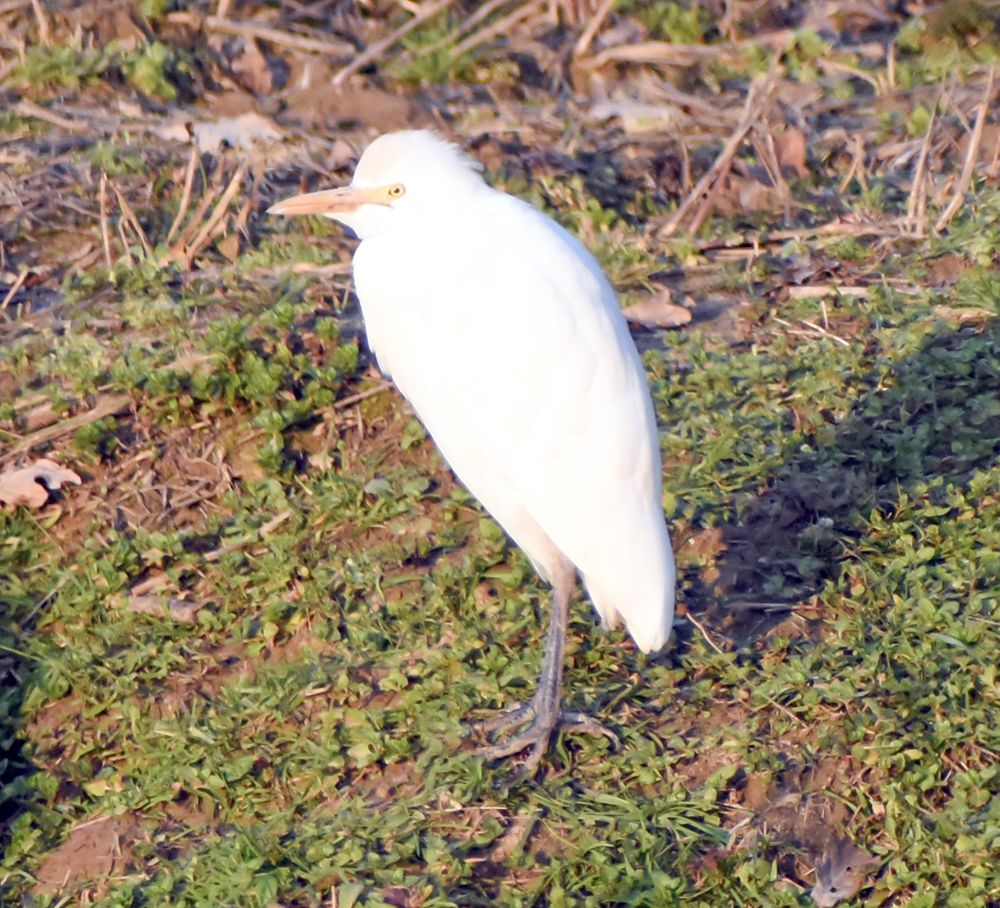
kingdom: Animalia
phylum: Chordata
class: Aves
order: Pelecaniformes
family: Ardeidae
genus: Bubulcus
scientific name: Bubulcus ibis
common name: Cattle egret
